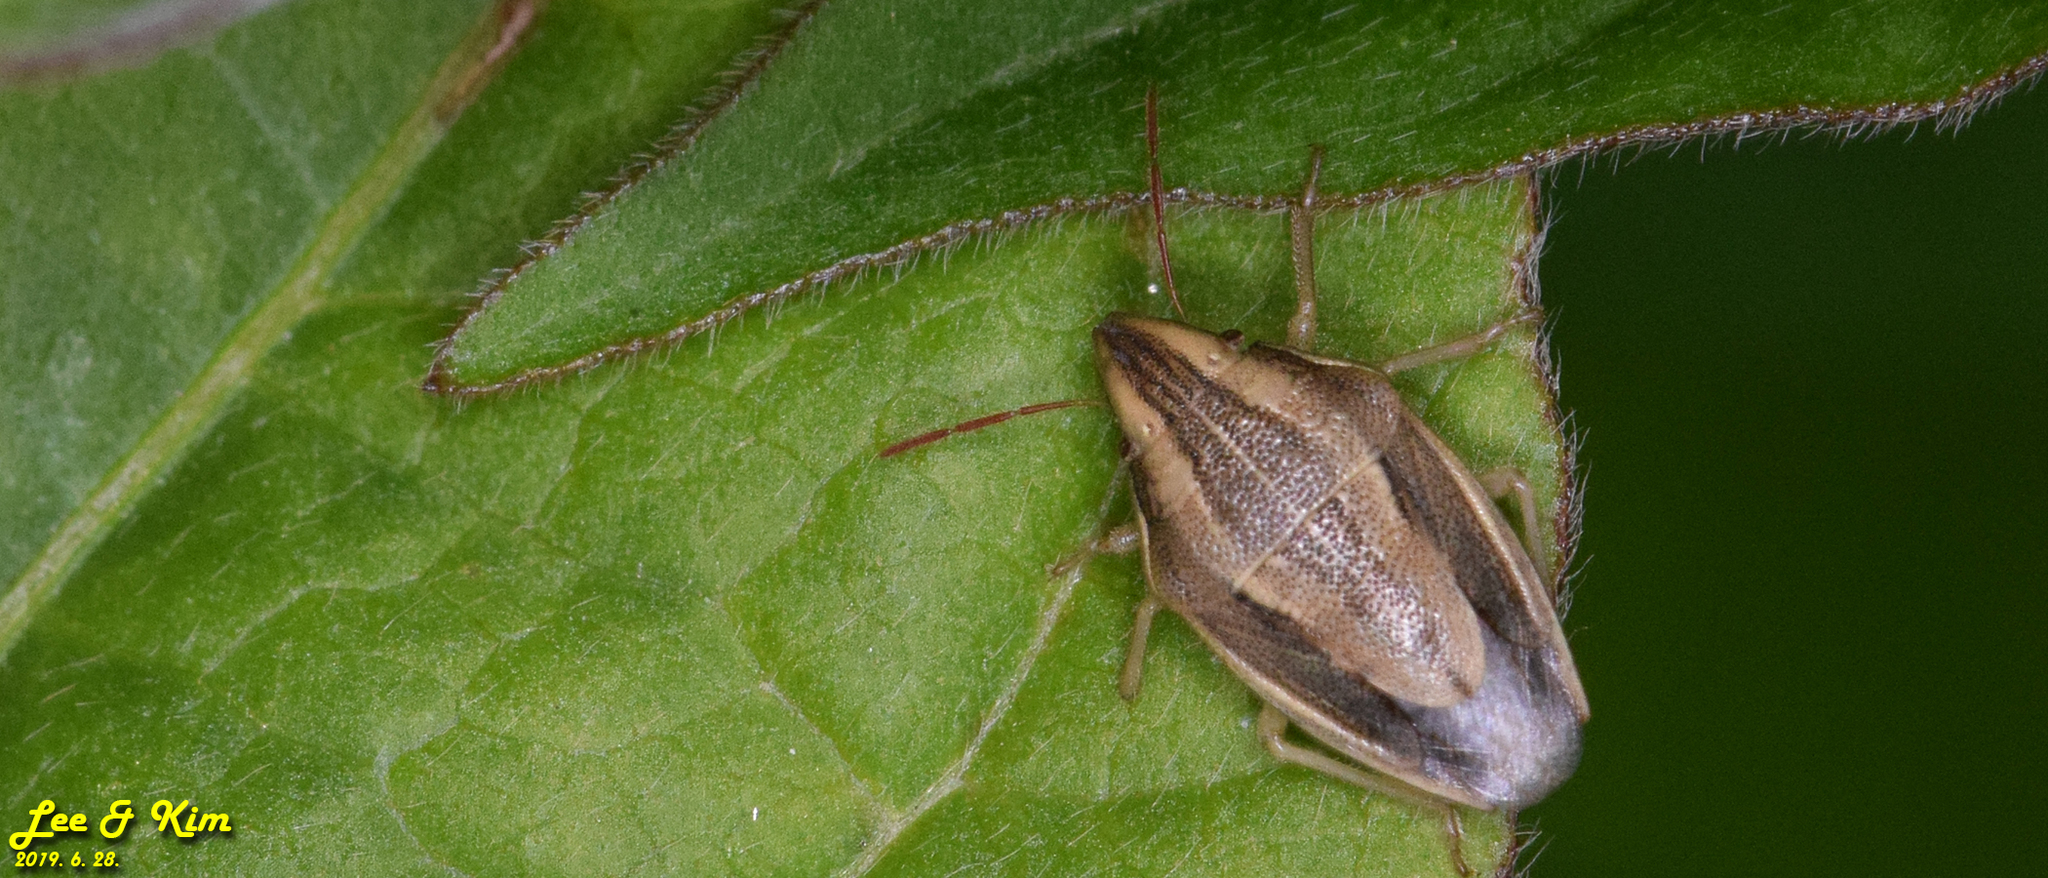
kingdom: Animalia
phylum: Arthropoda
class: Insecta
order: Hemiptera
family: Pentatomidae
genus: Aelia
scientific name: Aelia
